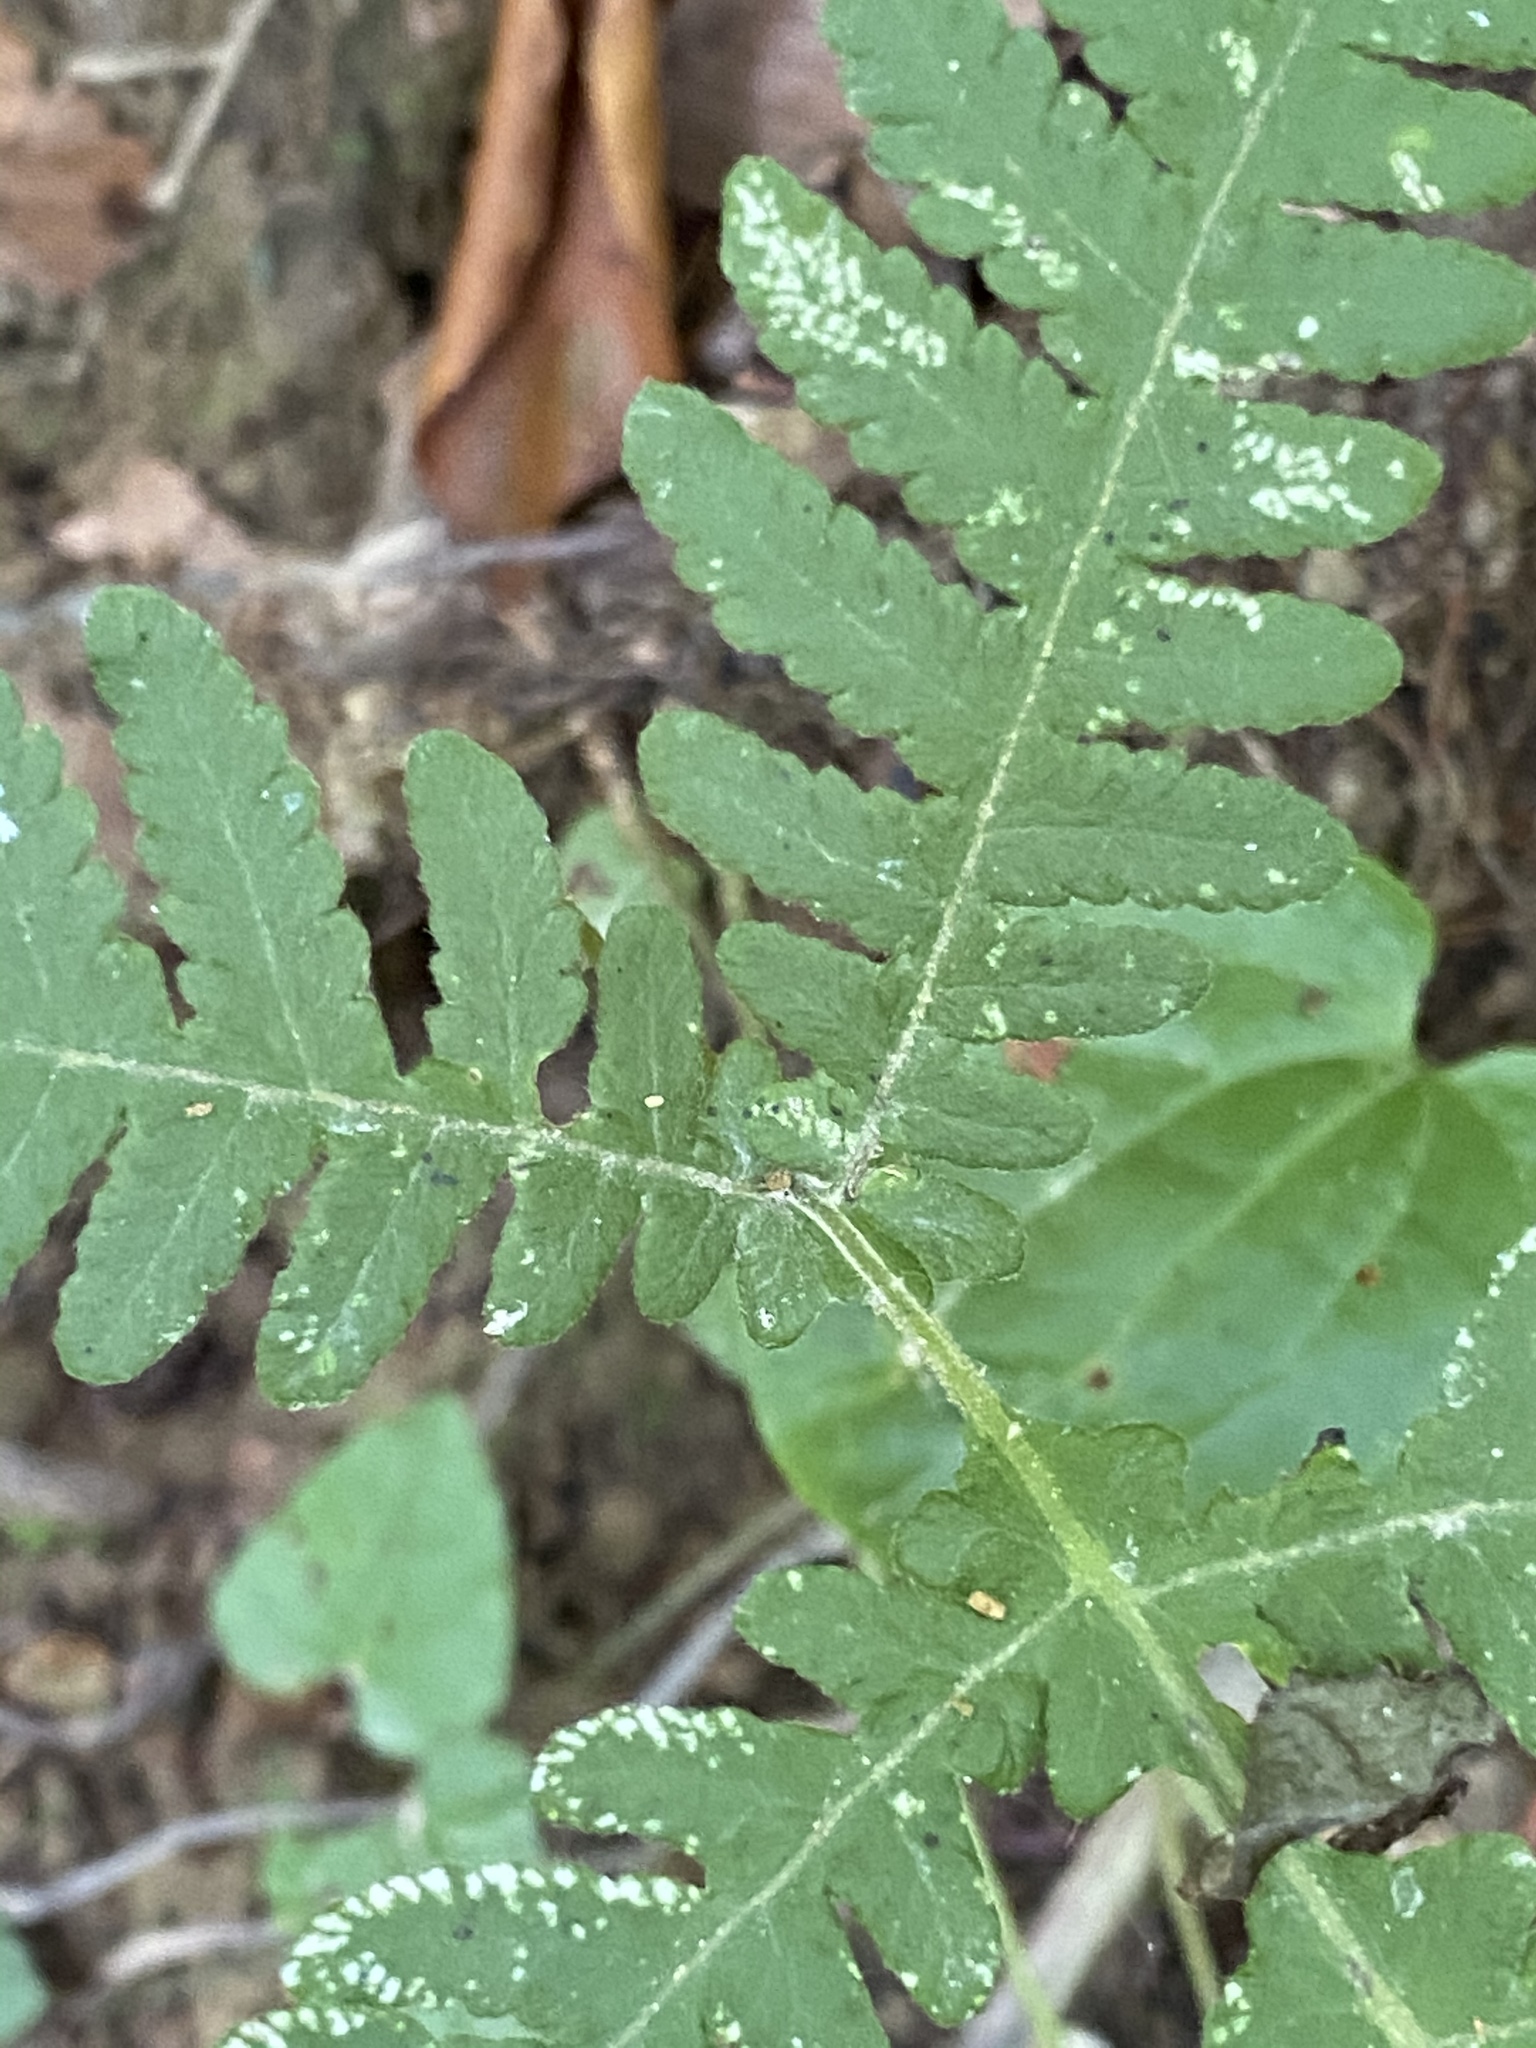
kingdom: Plantae
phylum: Tracheophyta
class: Polypodiopsida
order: Polypodiales
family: Thelypteridaceae
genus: Phegopteris
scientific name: Phegopteris hexagonoptera
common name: Broad beech fern
